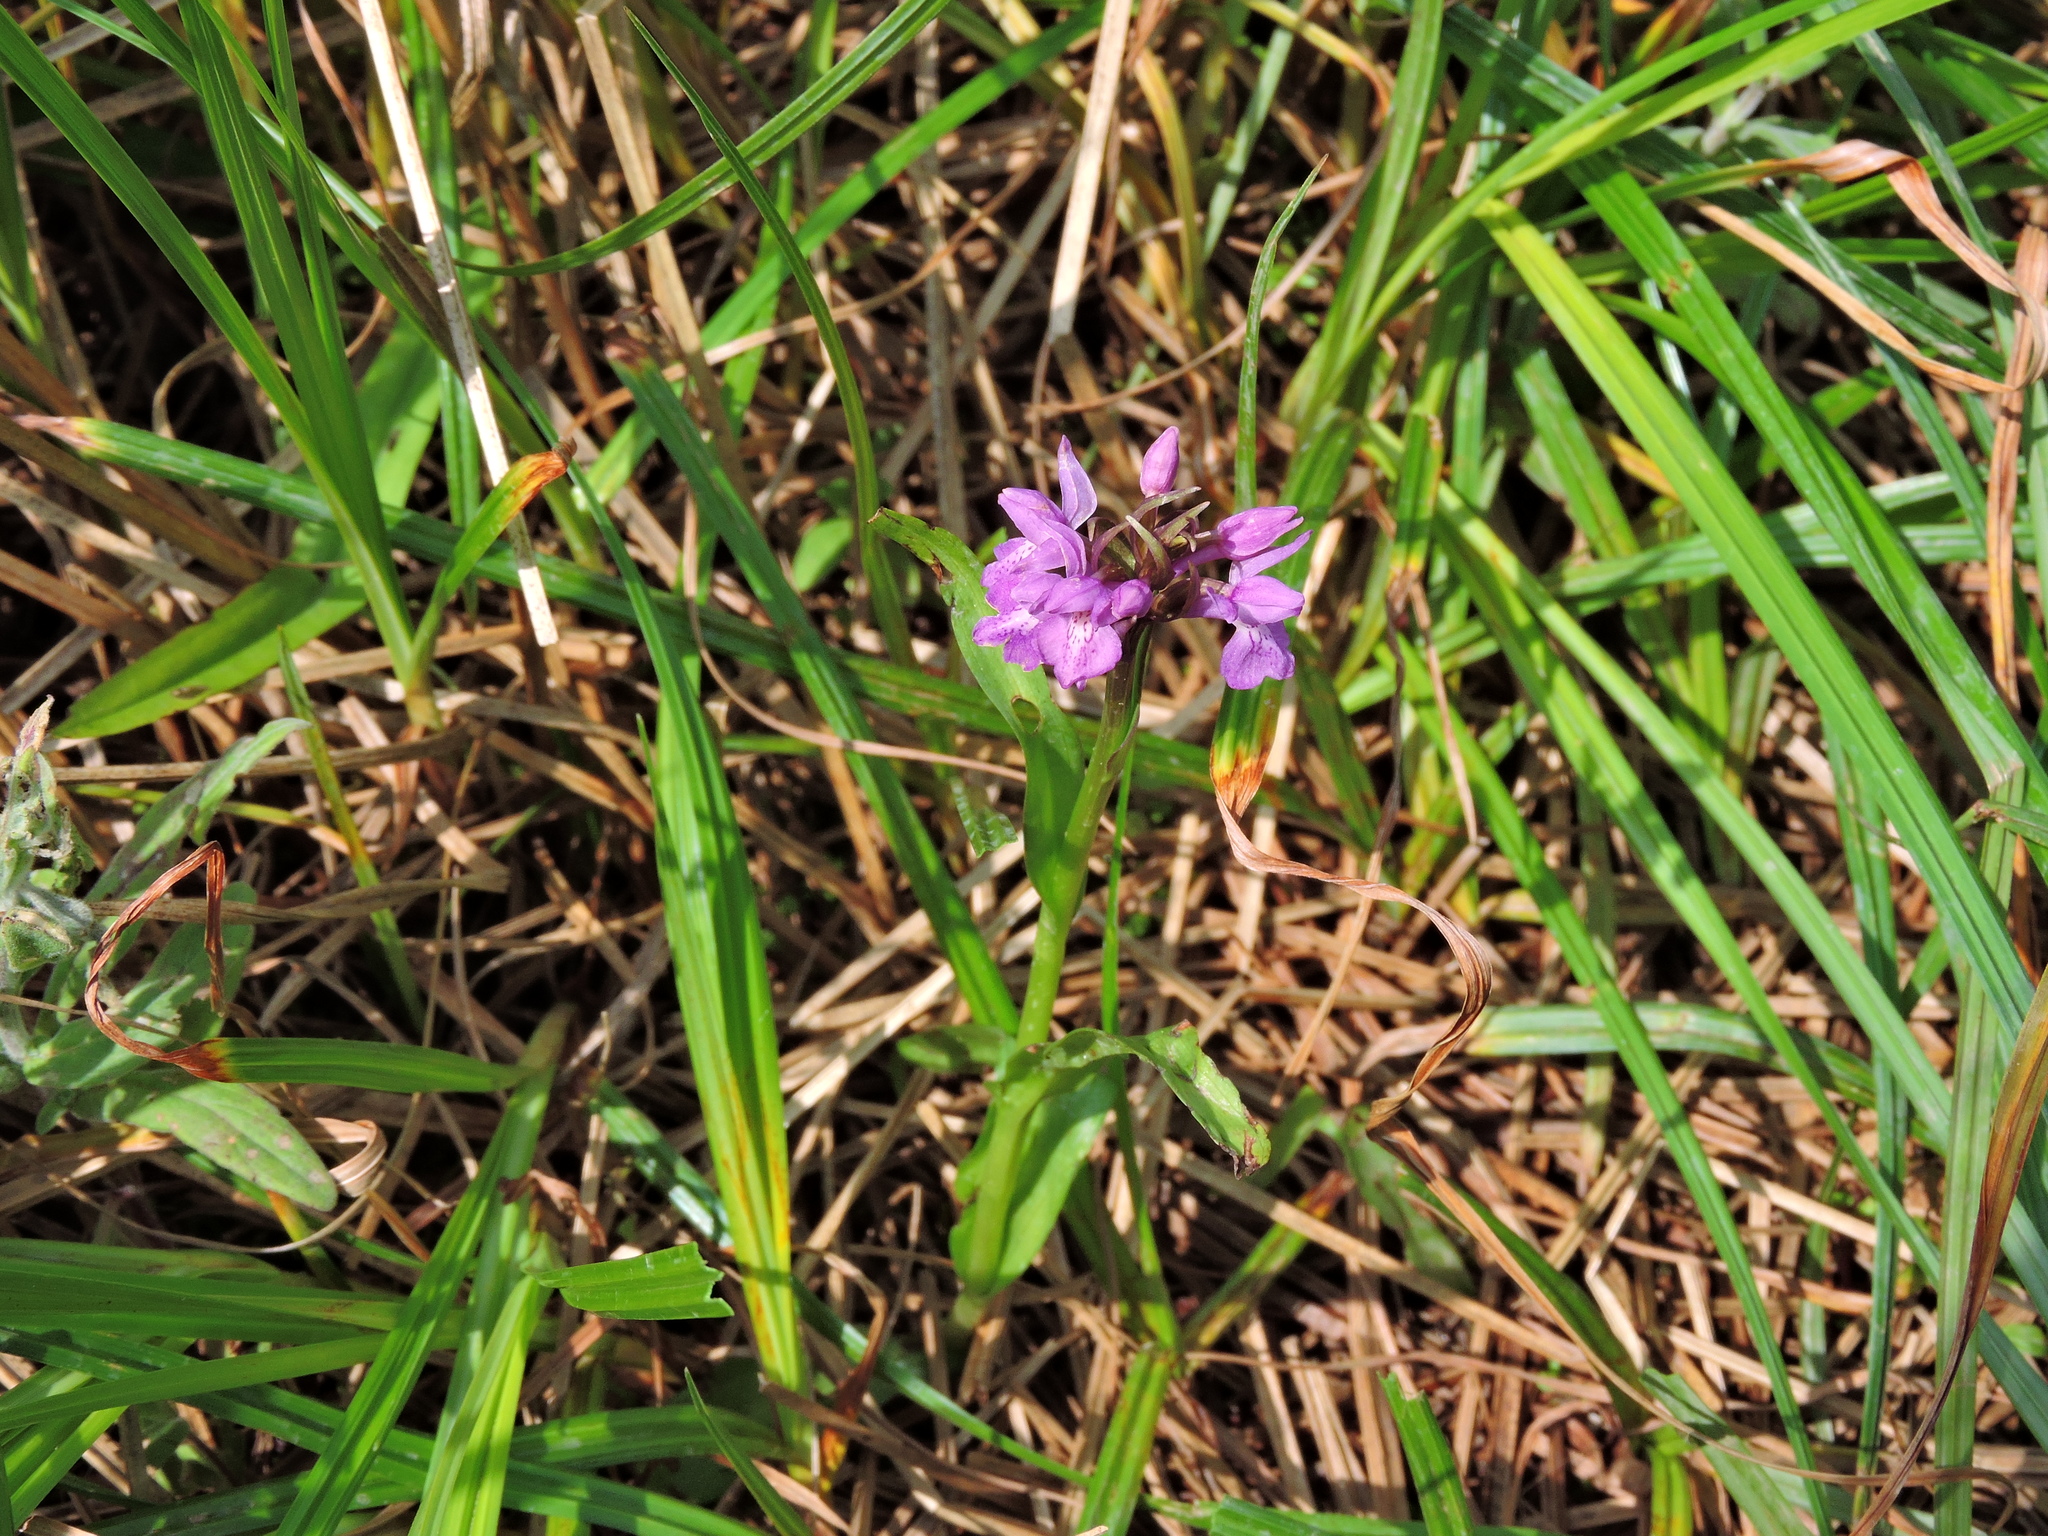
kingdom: Plantae
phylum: Tracheophyta
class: Liliopsida
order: Asparagales
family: Orchidaceae
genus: Dactylorhiza
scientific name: Dactylorhiza majalis
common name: Marsh orchid
